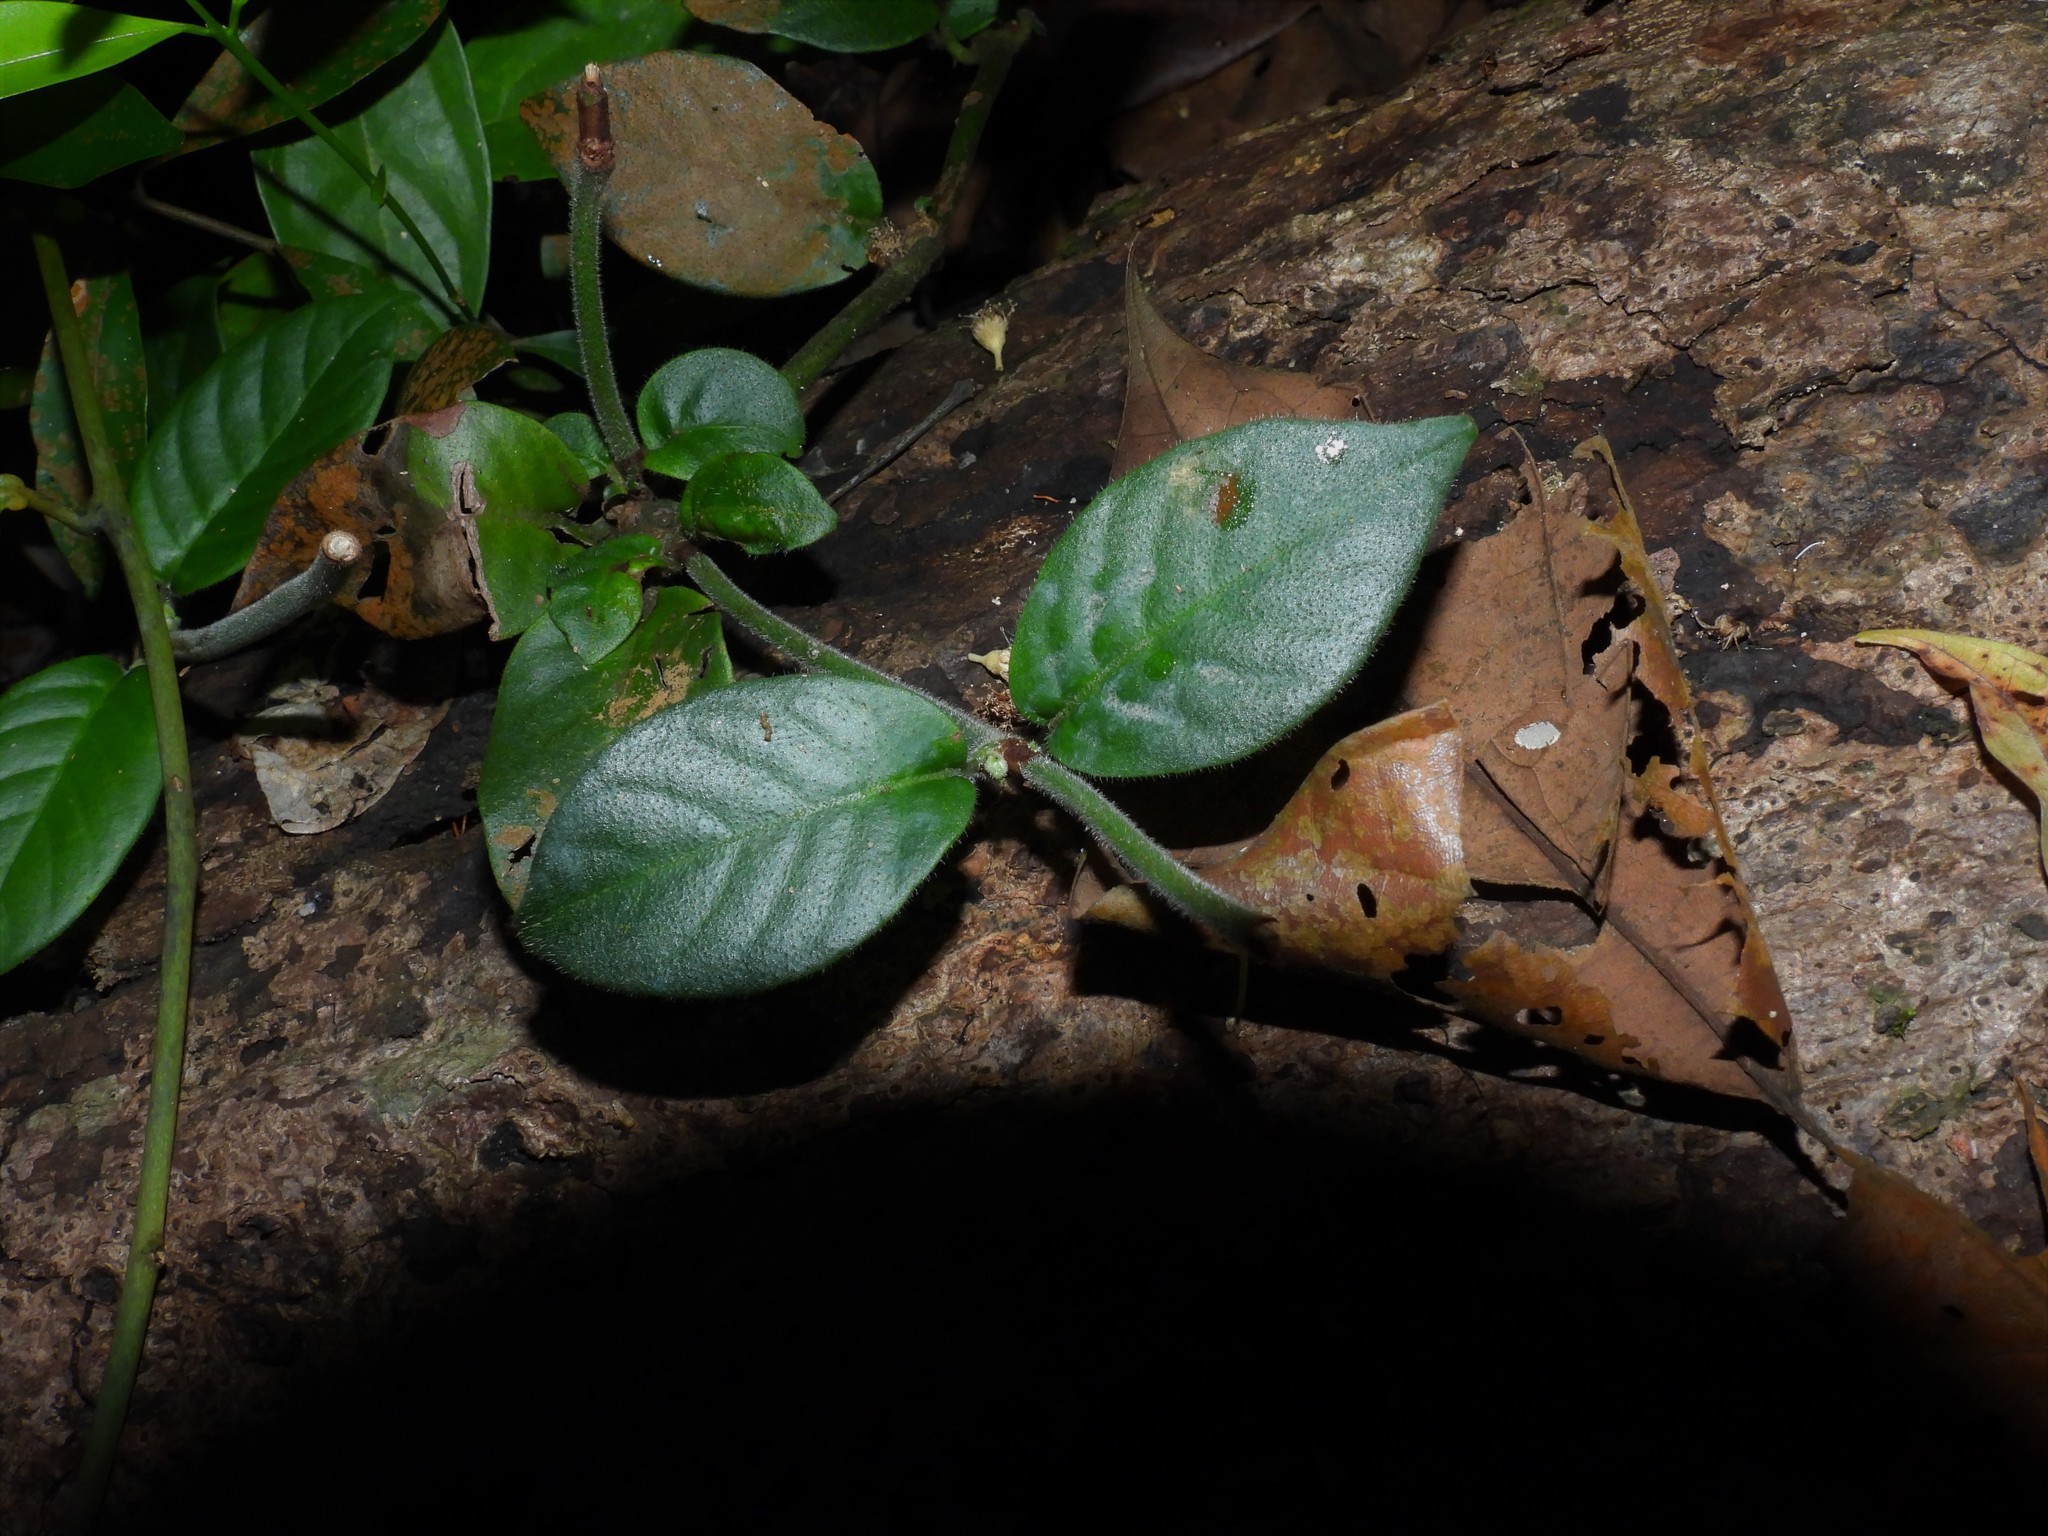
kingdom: Plantae
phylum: Tracheophyta
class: Magnoliopsida
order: Gentianales
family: Rubiaceae
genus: Psychotria
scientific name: Psychotria ovoidea
